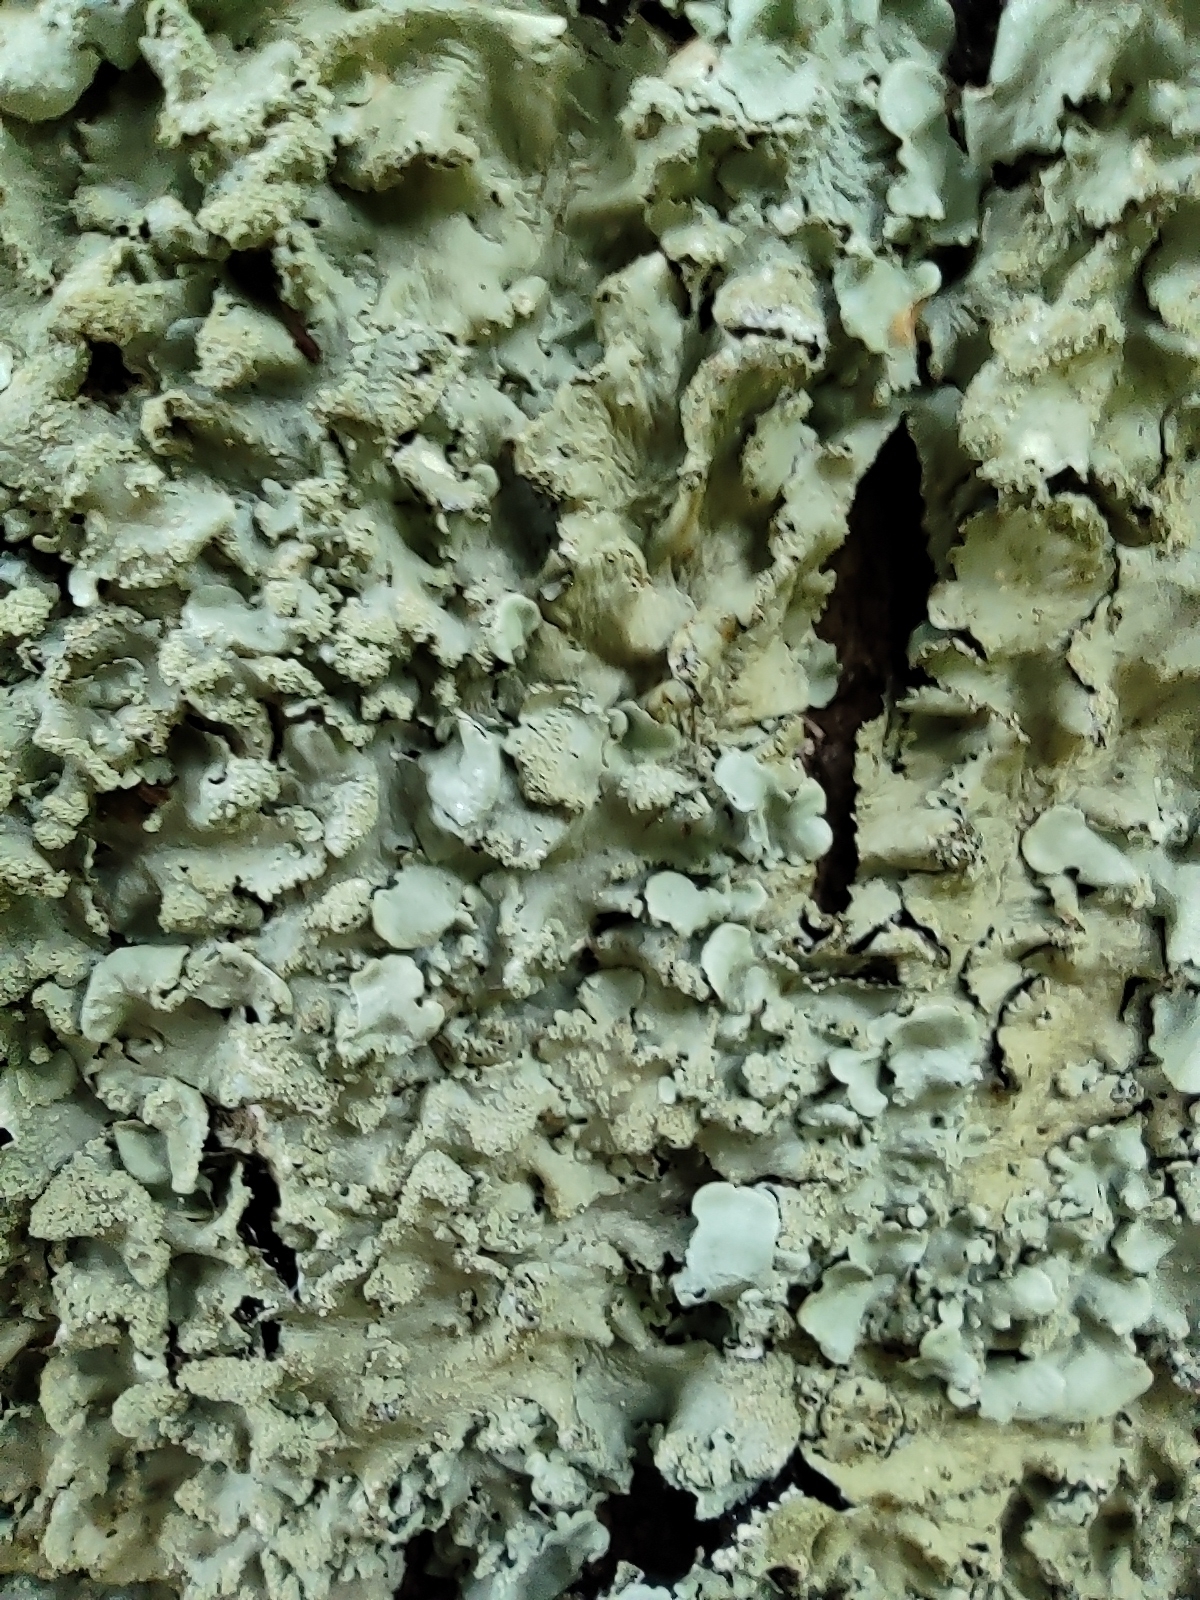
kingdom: Fungi
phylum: Ascomycota
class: Lecanoromycetes
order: Lecanorales
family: Parmeliaceae
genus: Flavoparmelia
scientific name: Flavoparmelia caperata
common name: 40-mile per hour lichen
